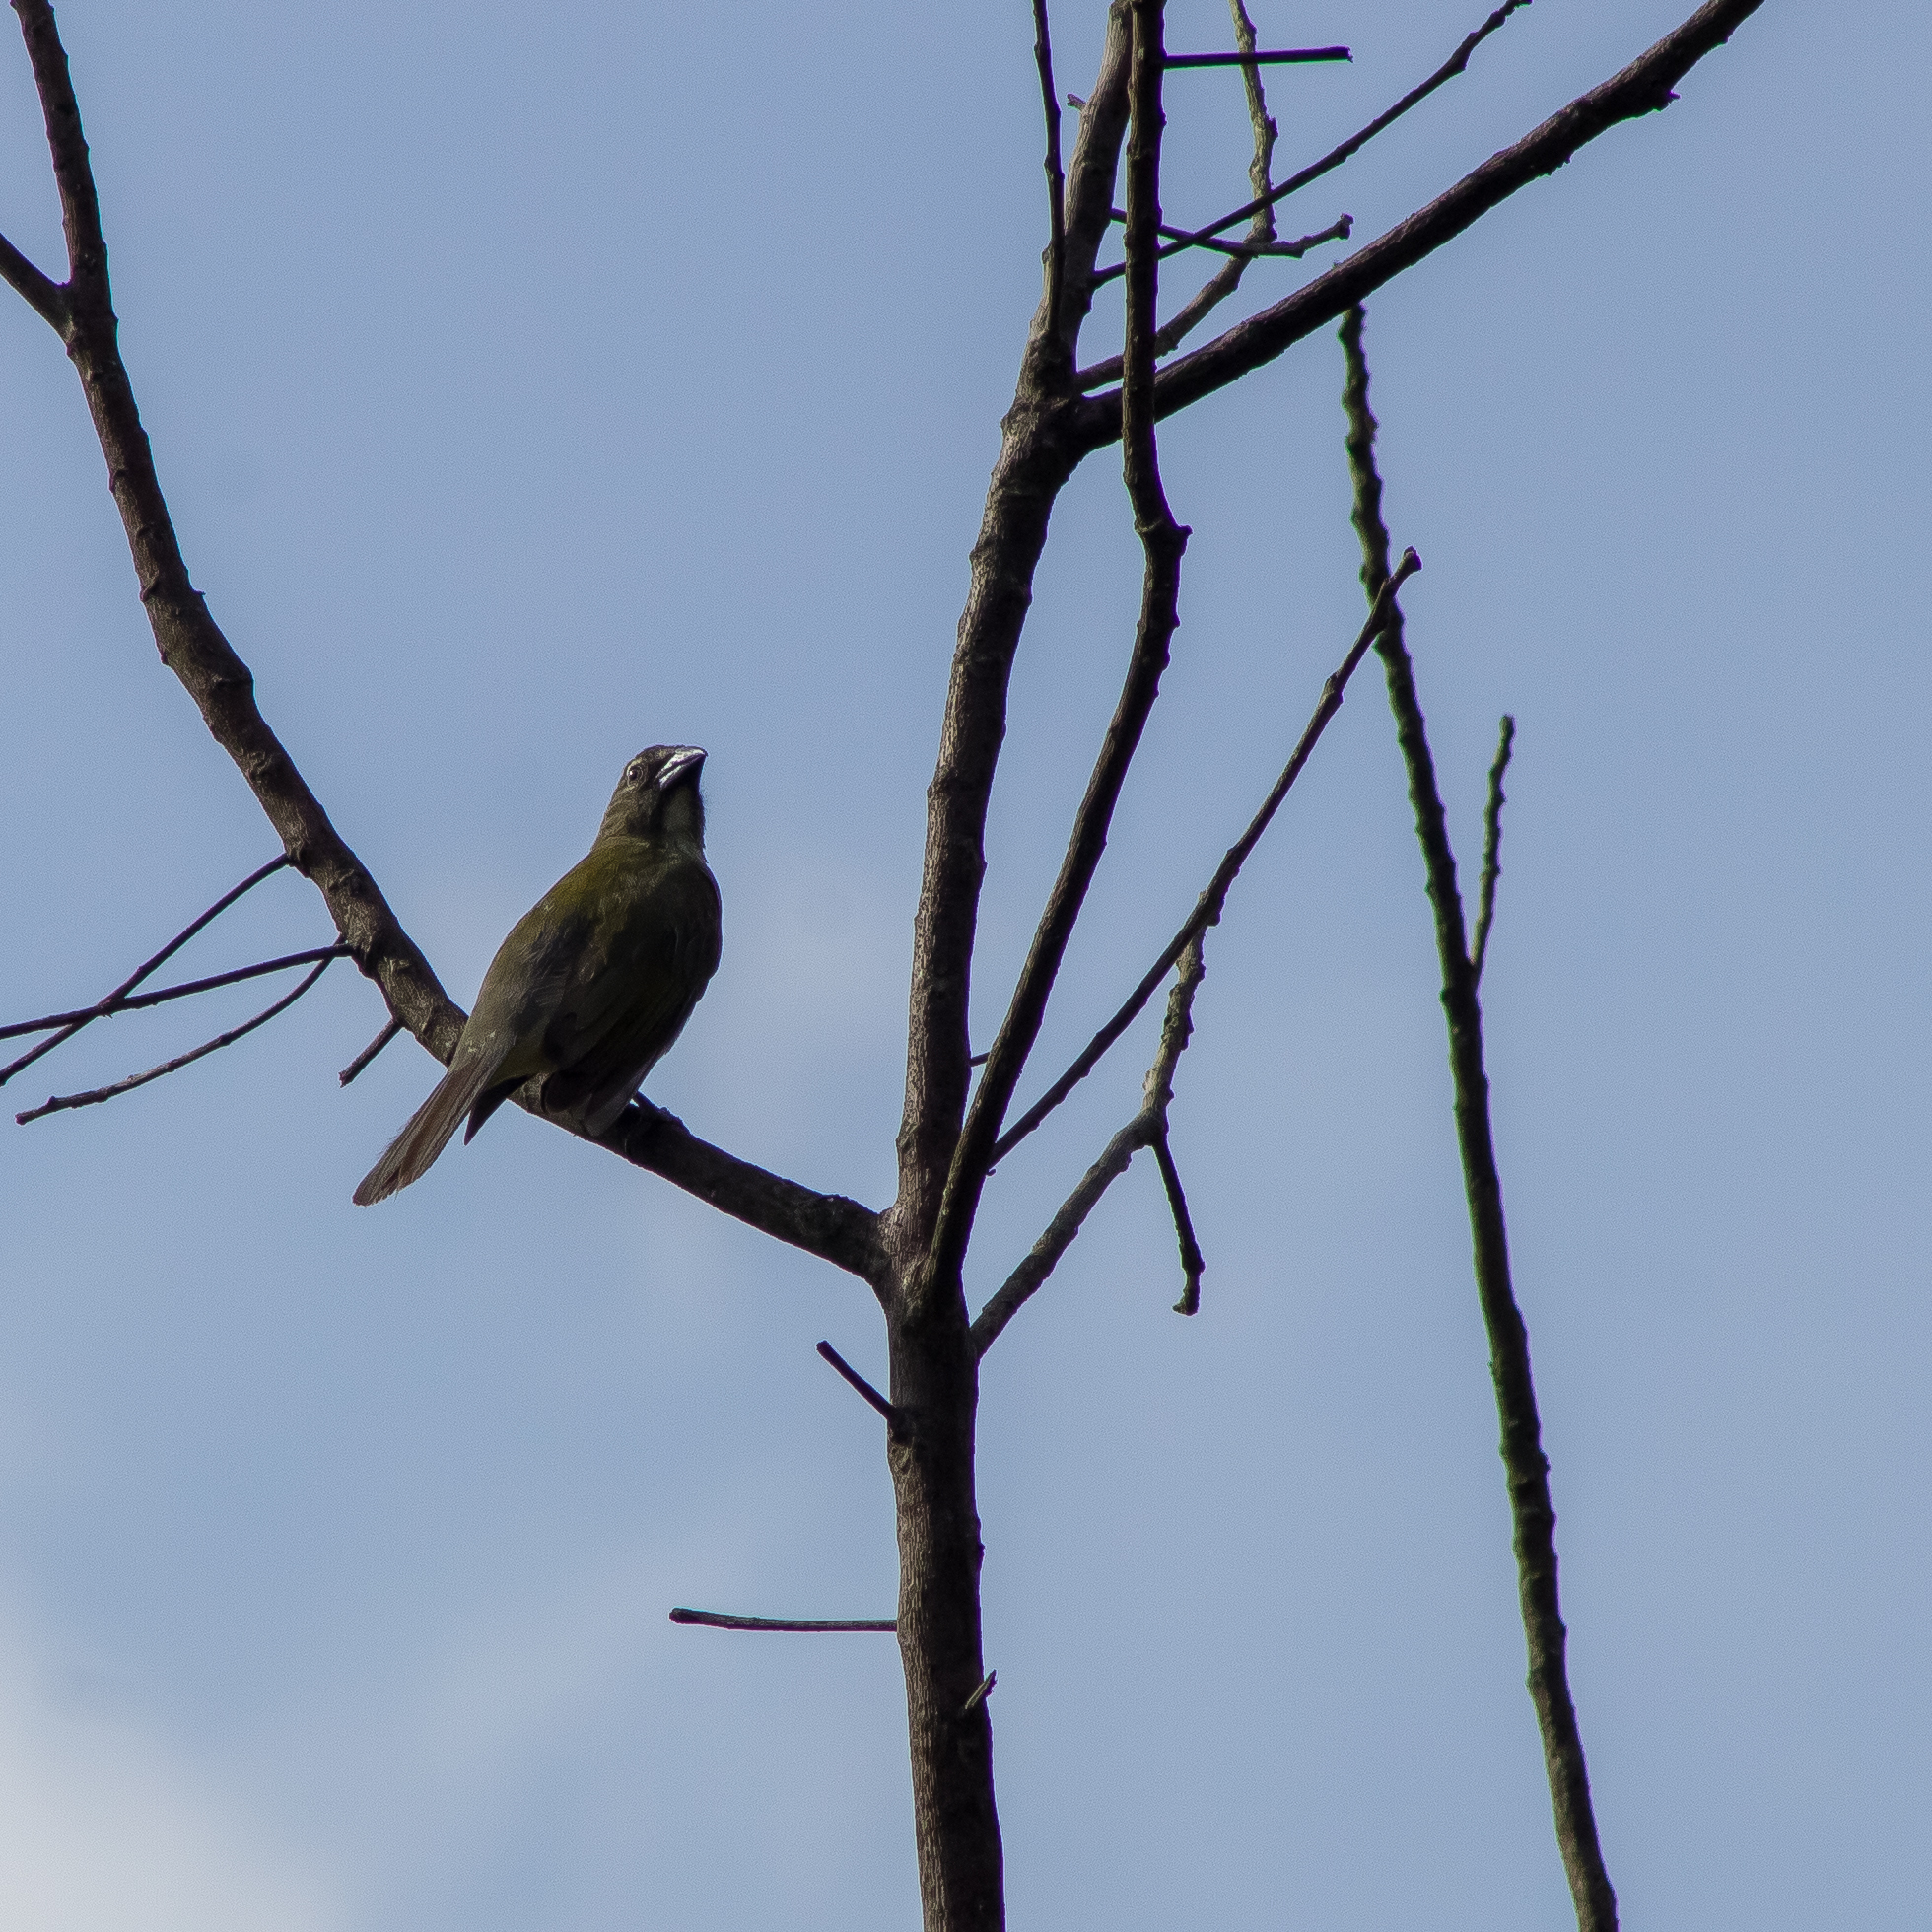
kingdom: Animalia
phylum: Chordata
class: Aves
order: Passeriformes
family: Thraupidae
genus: Saltator
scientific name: Saltator striatipectus
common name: Streaked saltator
